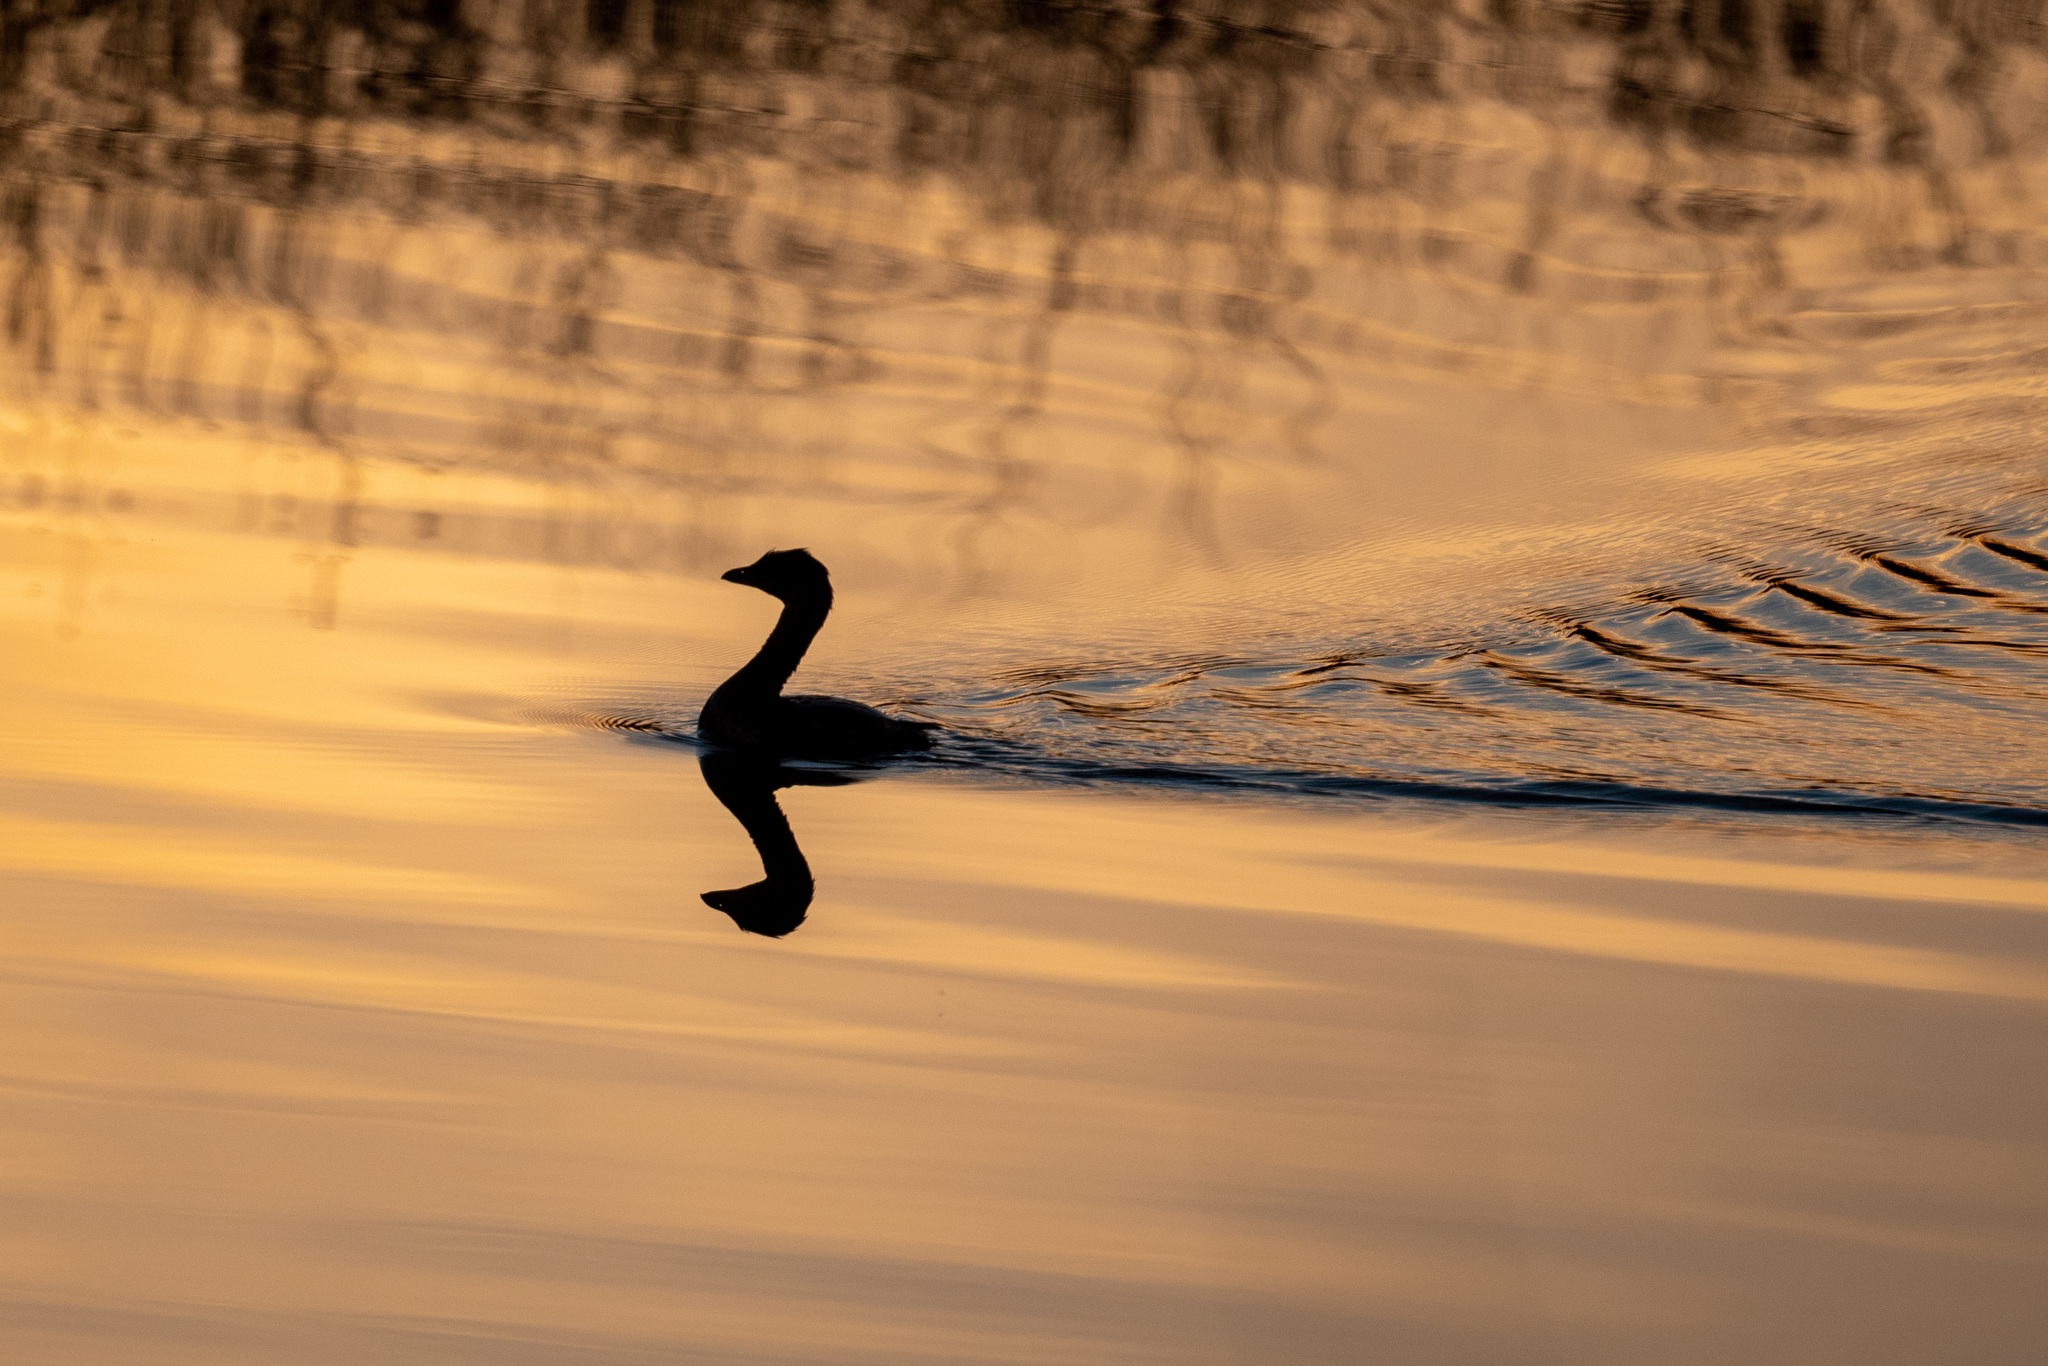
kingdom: Animalia
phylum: Chordata
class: Aves
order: Podicipediformes
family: Podicipedidae
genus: Podilymbus
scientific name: Podilymbus podiceps
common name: Pied-billed grebe
